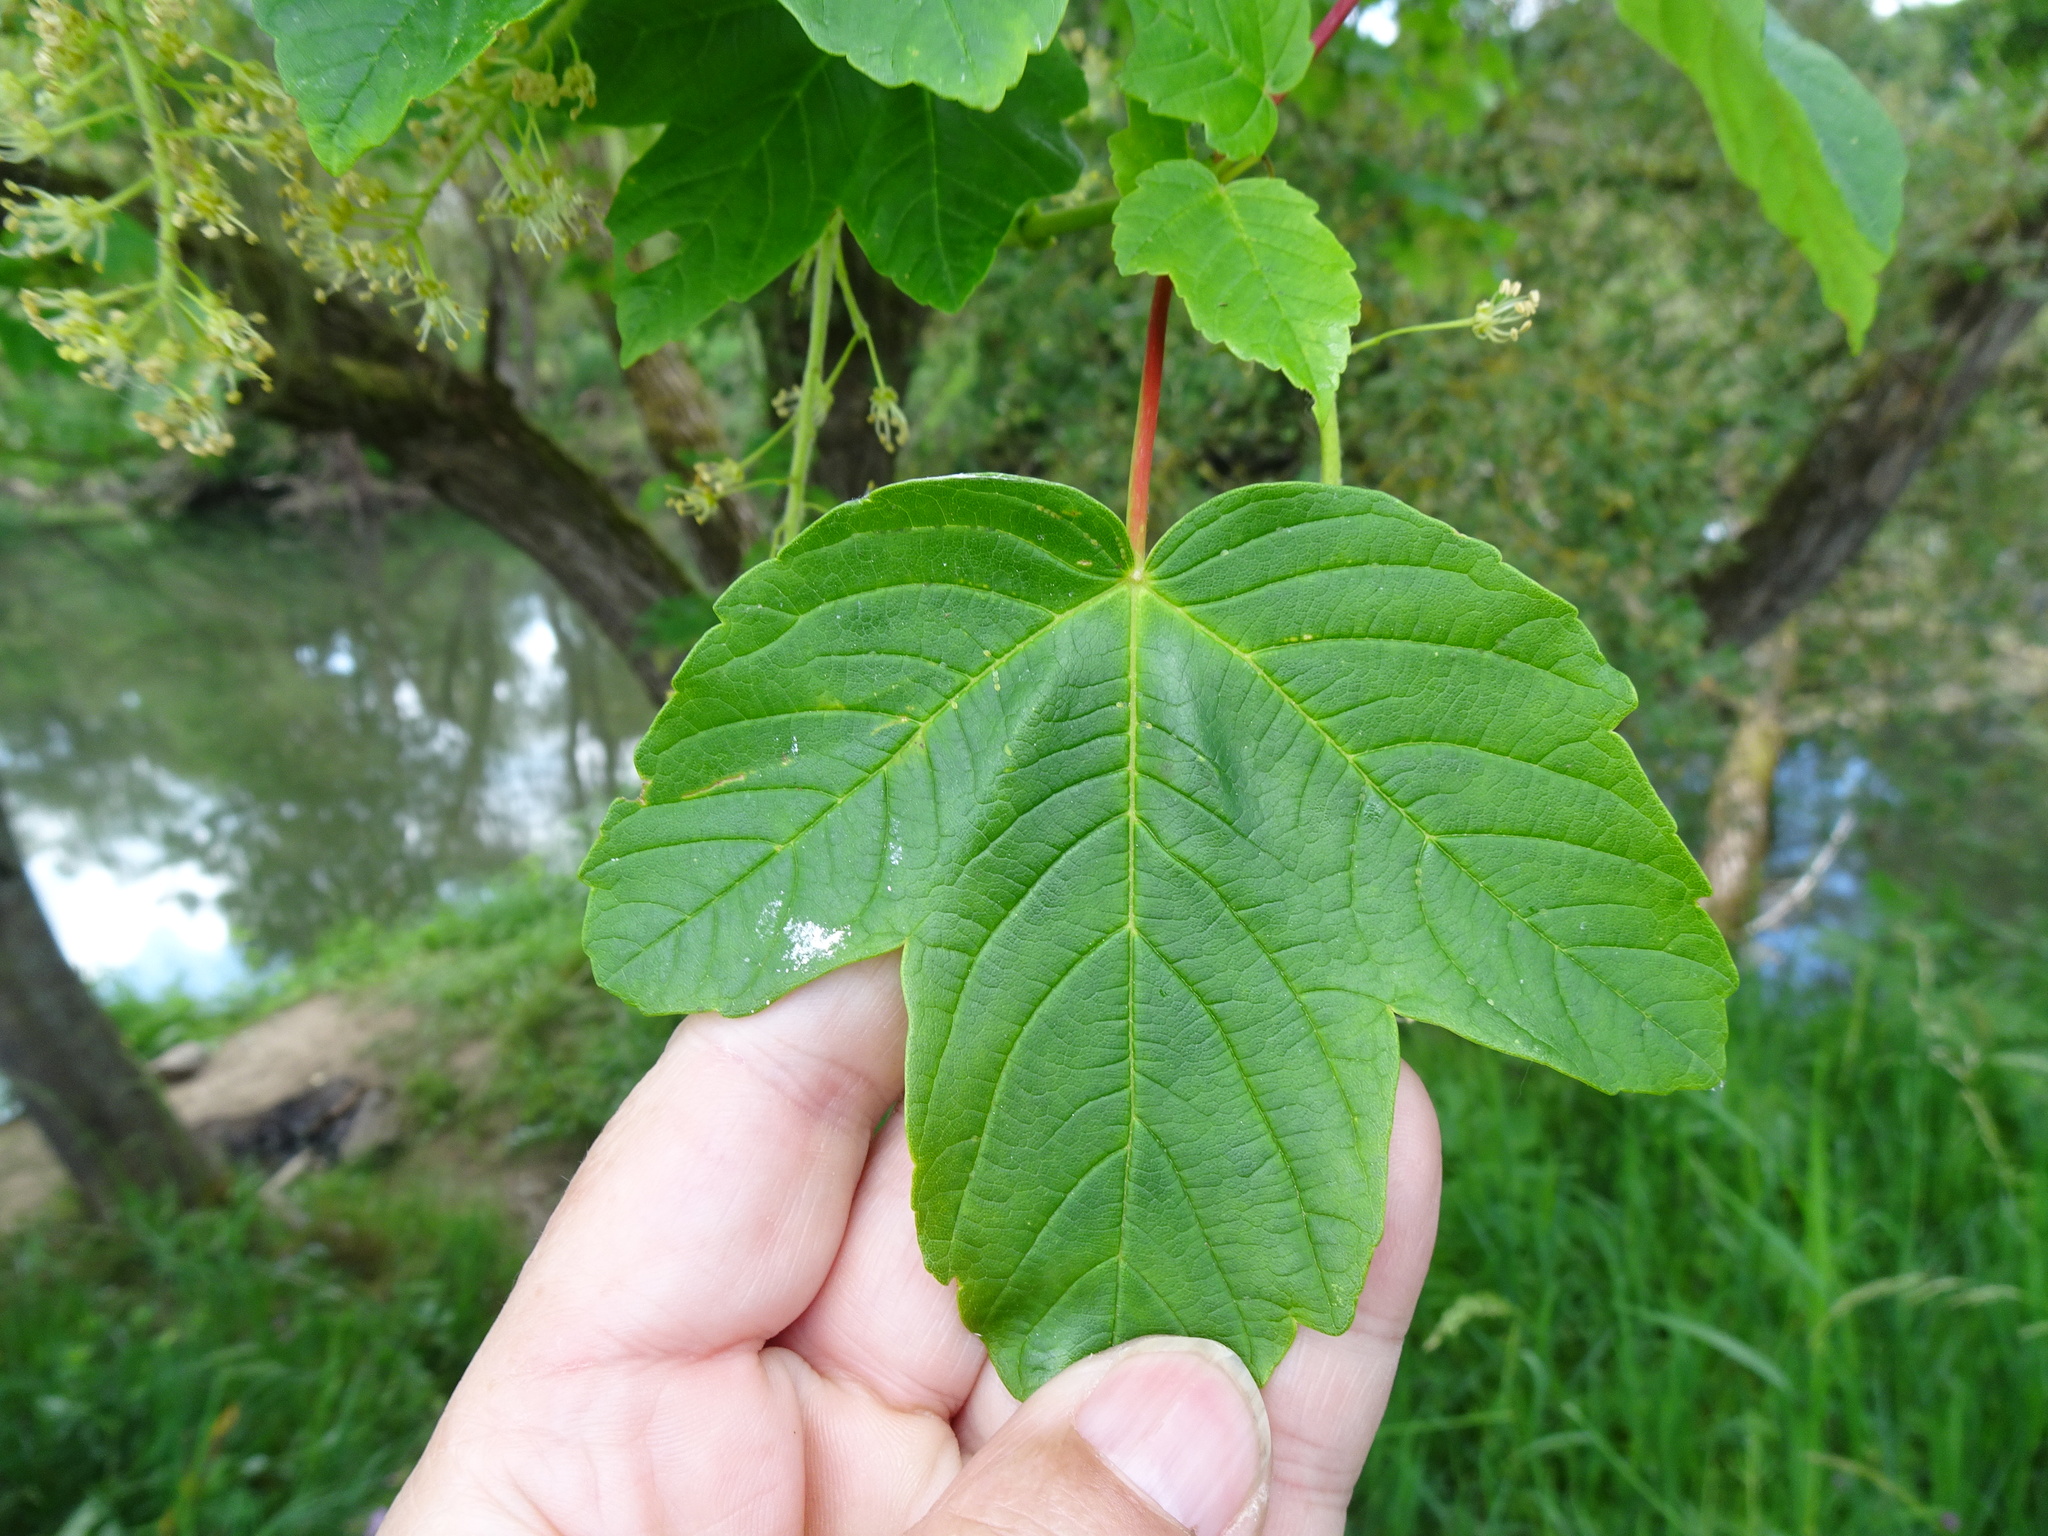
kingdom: Plantae
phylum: Tracheophyta
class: Magnoliopsida
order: Sapindales
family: Sapindaceae
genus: Acer
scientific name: Acer pseudoplatanus
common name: Sycamore
